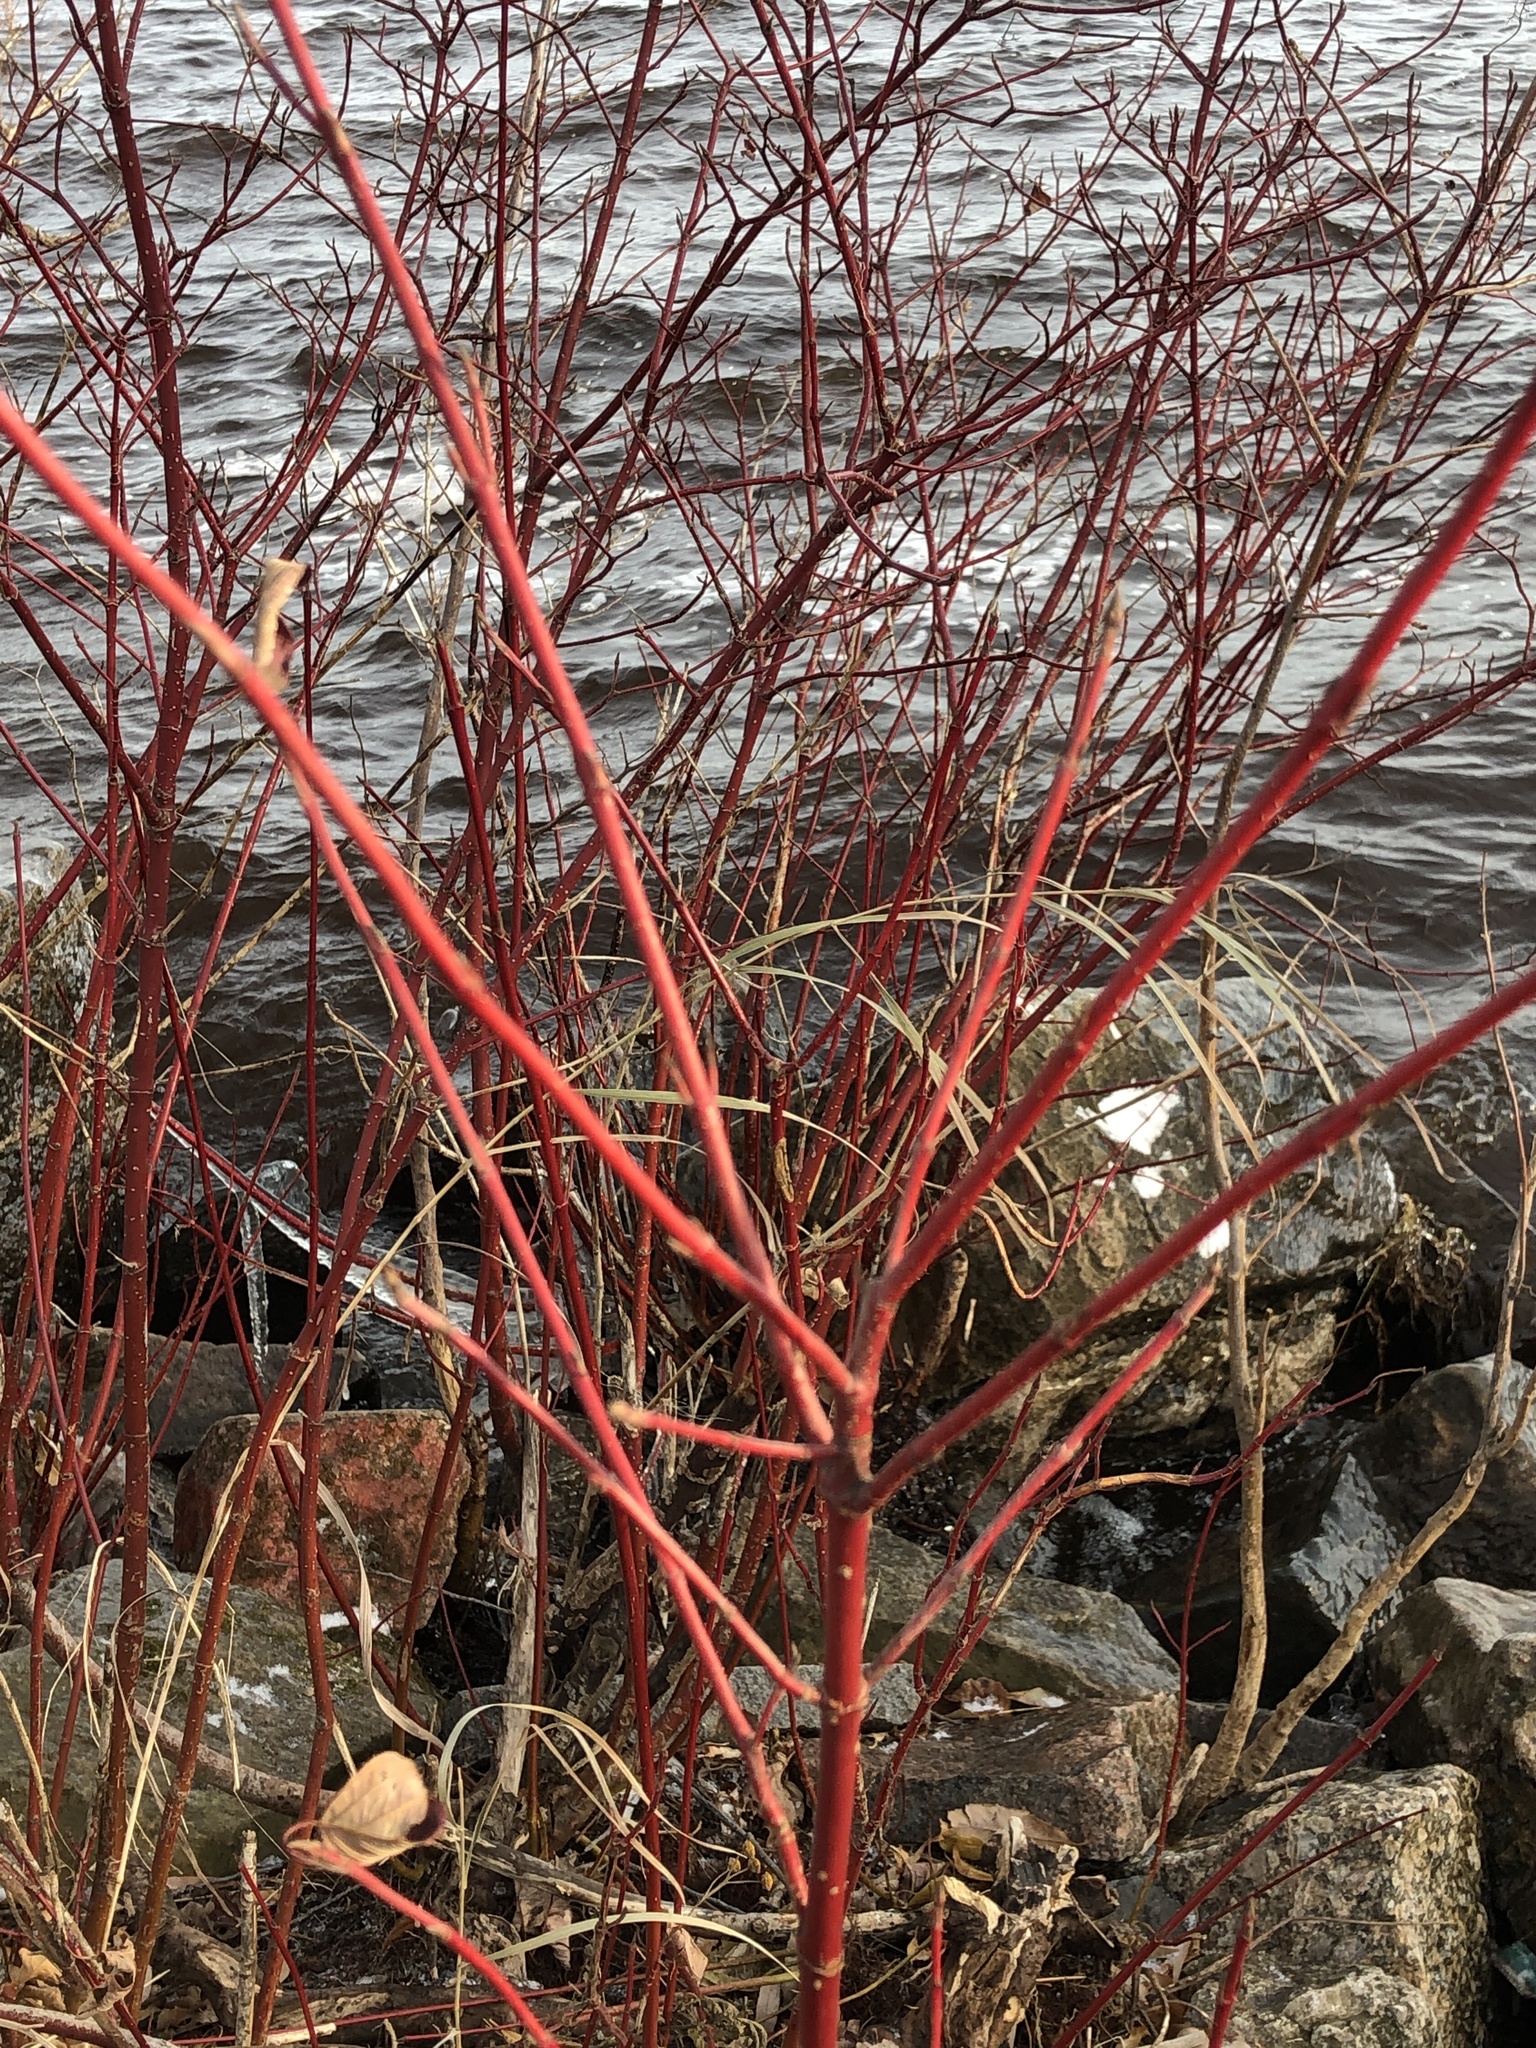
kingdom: Plantae
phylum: Tracheophyta
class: Magnoliopsida
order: Cornales
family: Cornaceae
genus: Cornus
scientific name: Cornus sericea
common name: Red-osier dogwood
